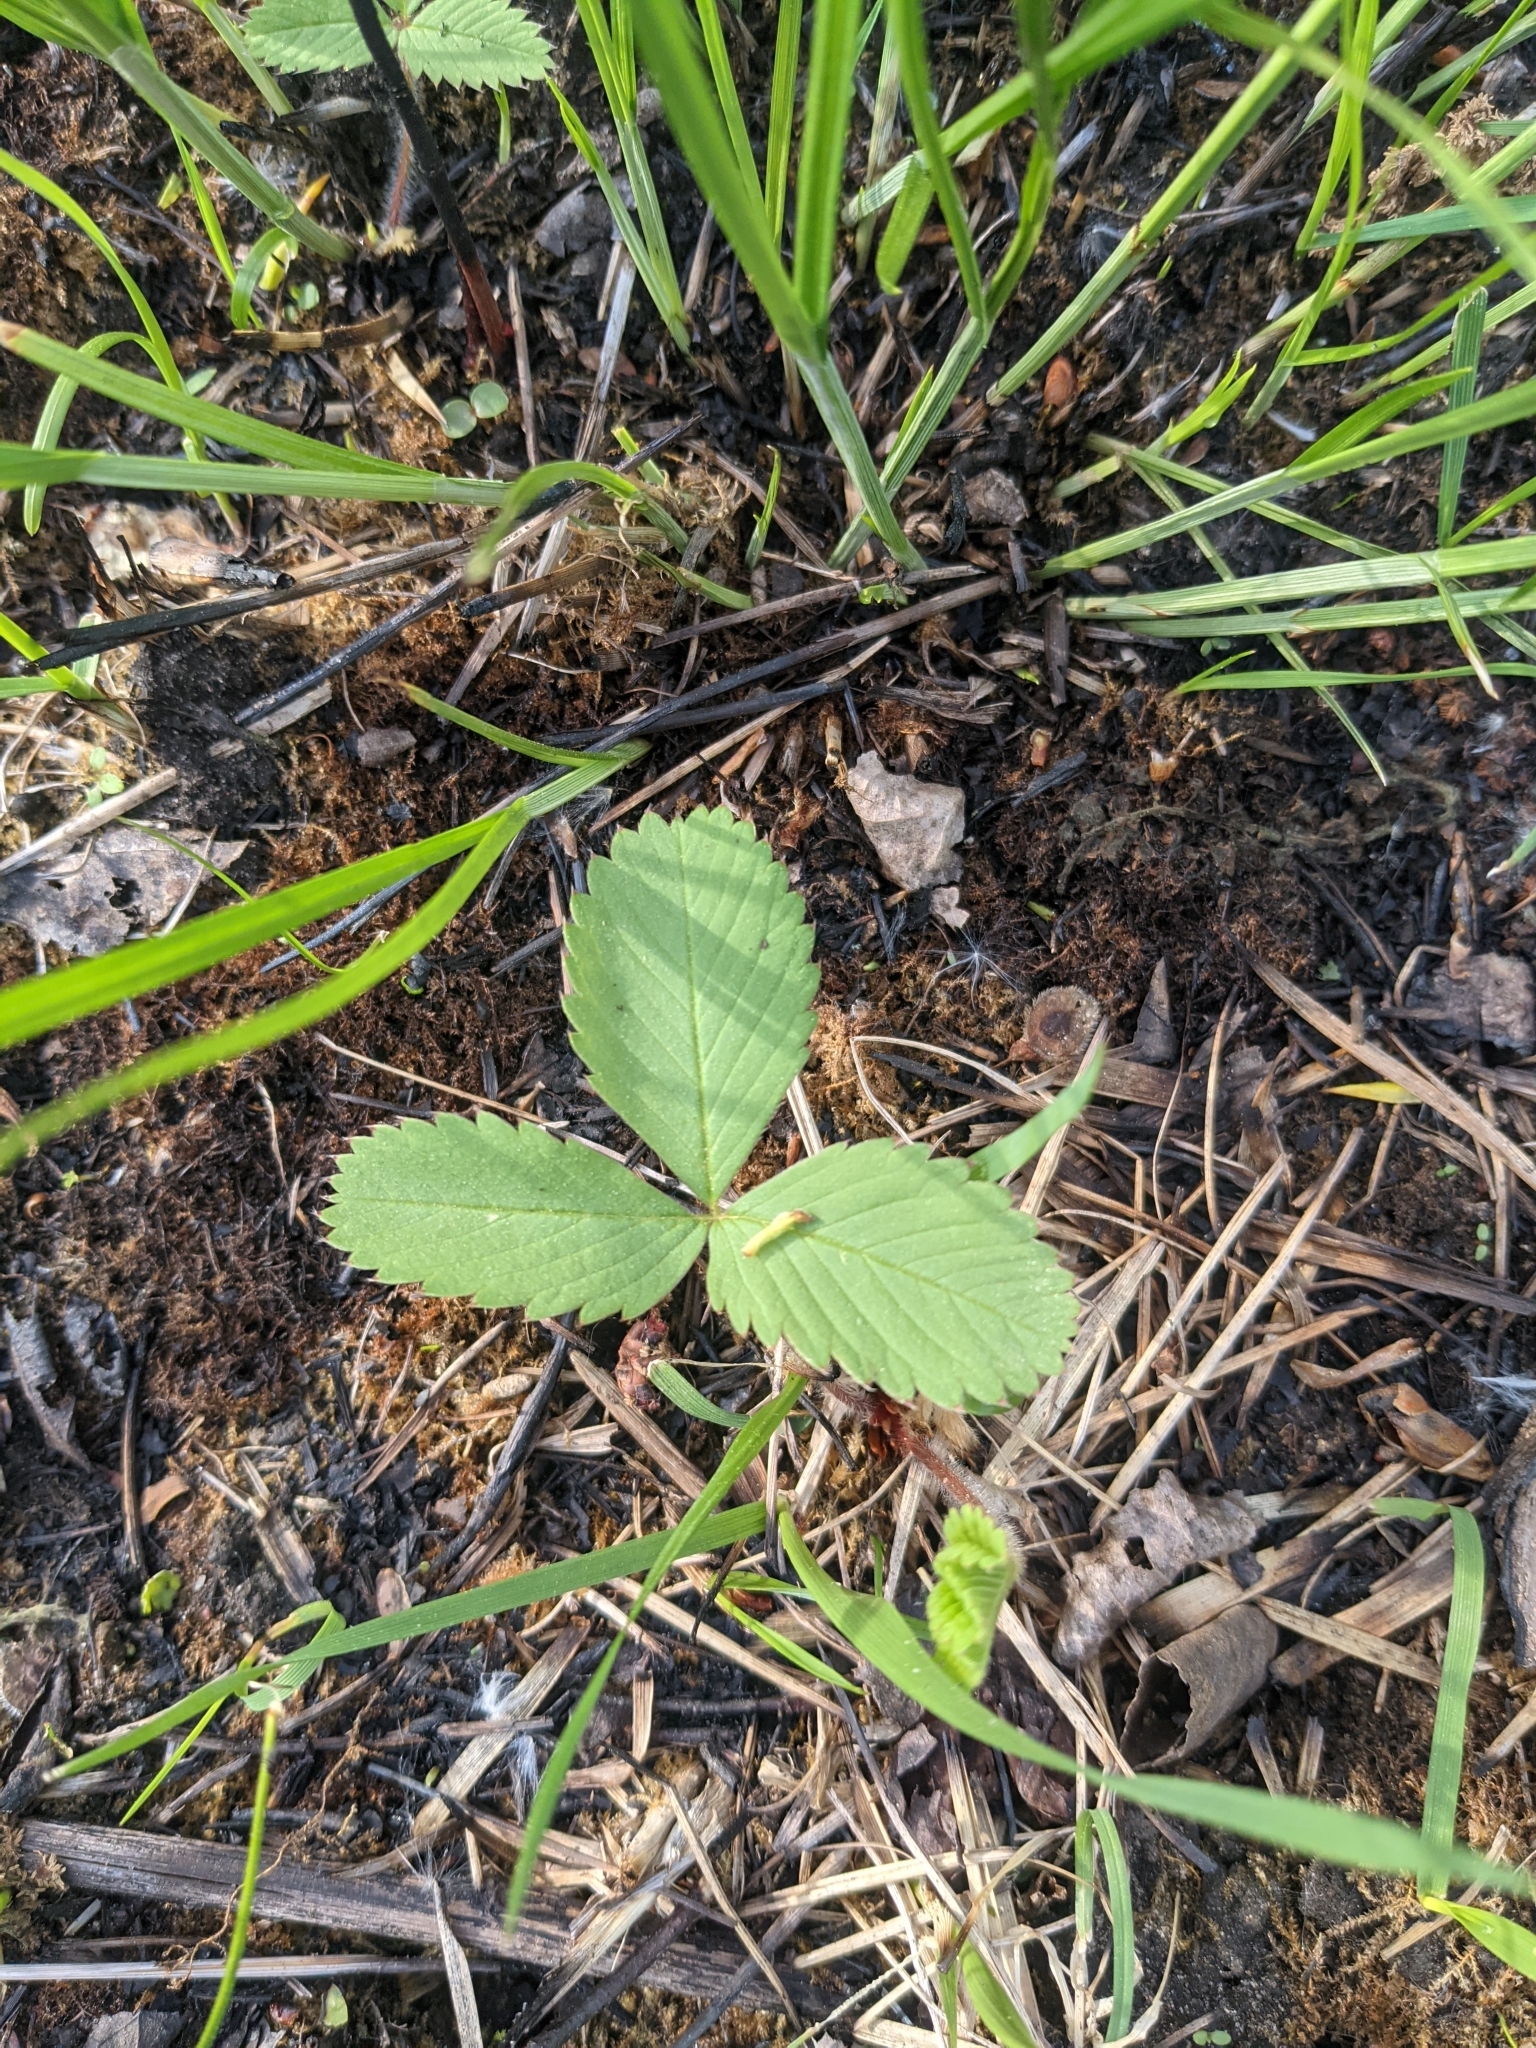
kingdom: Plantae
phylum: Tracheophyta
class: Magnoliopsida
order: Rosales
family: Rosaceae
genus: Fragaria
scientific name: Fragaria virginiana
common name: Thickleaved wild strawberry
